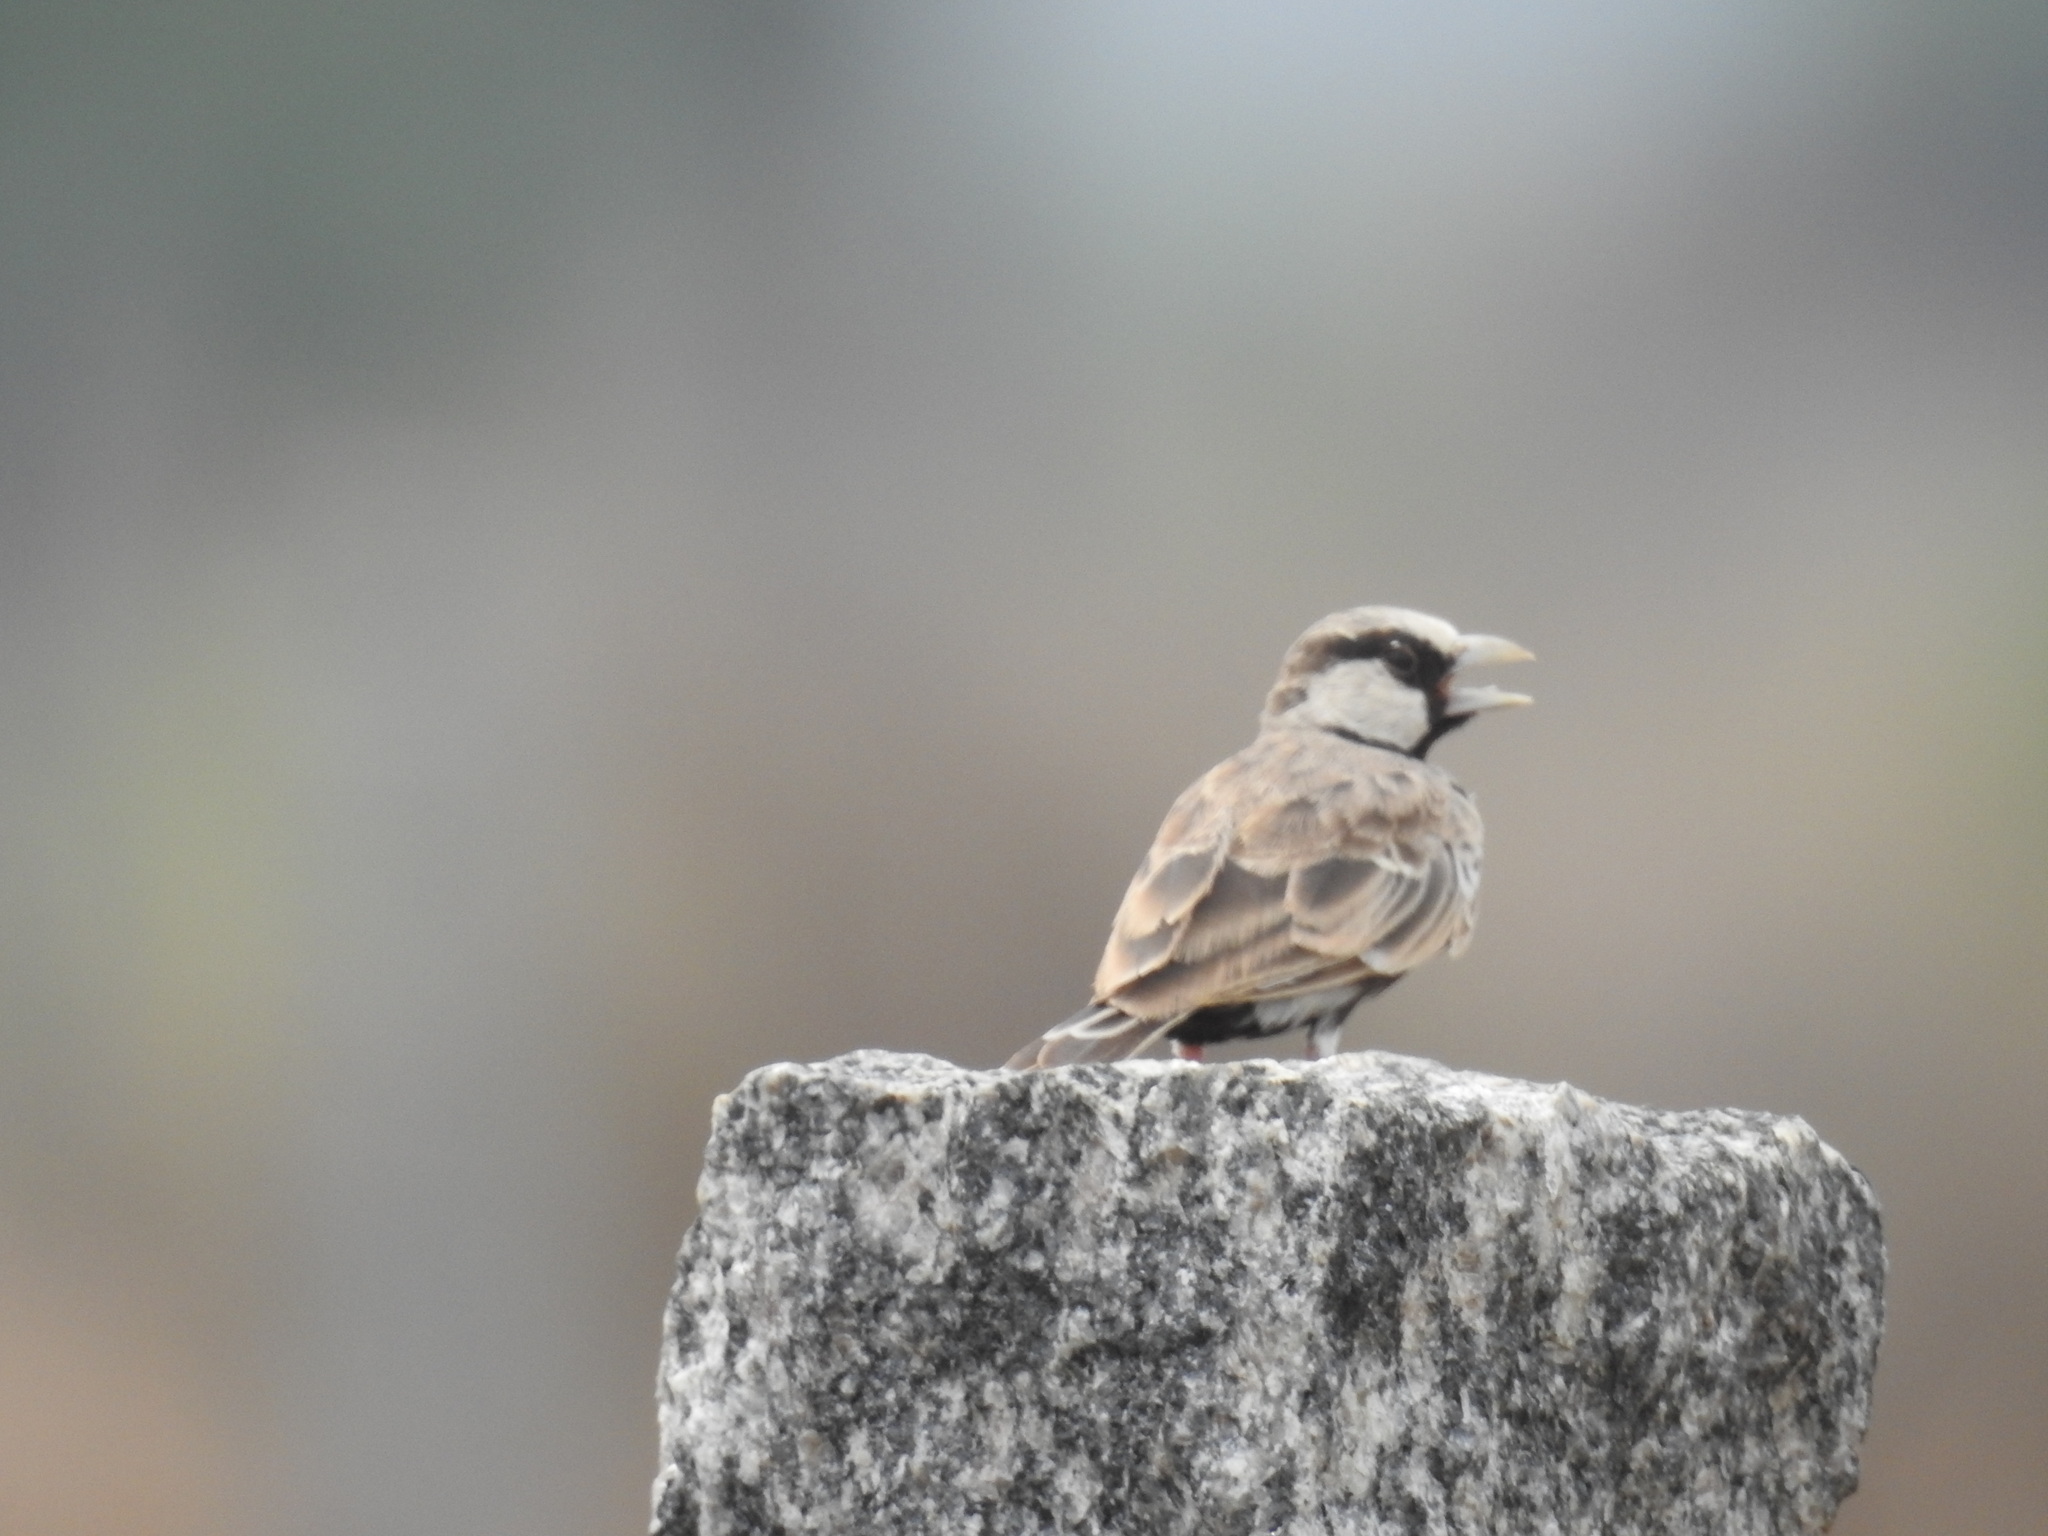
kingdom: Animalia
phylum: Chordata
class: Aves
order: Passeriformes
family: Alaudidae
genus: Eremopterix
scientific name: Eremopterix griseus
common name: Ashy-crowned sparrow-lark
